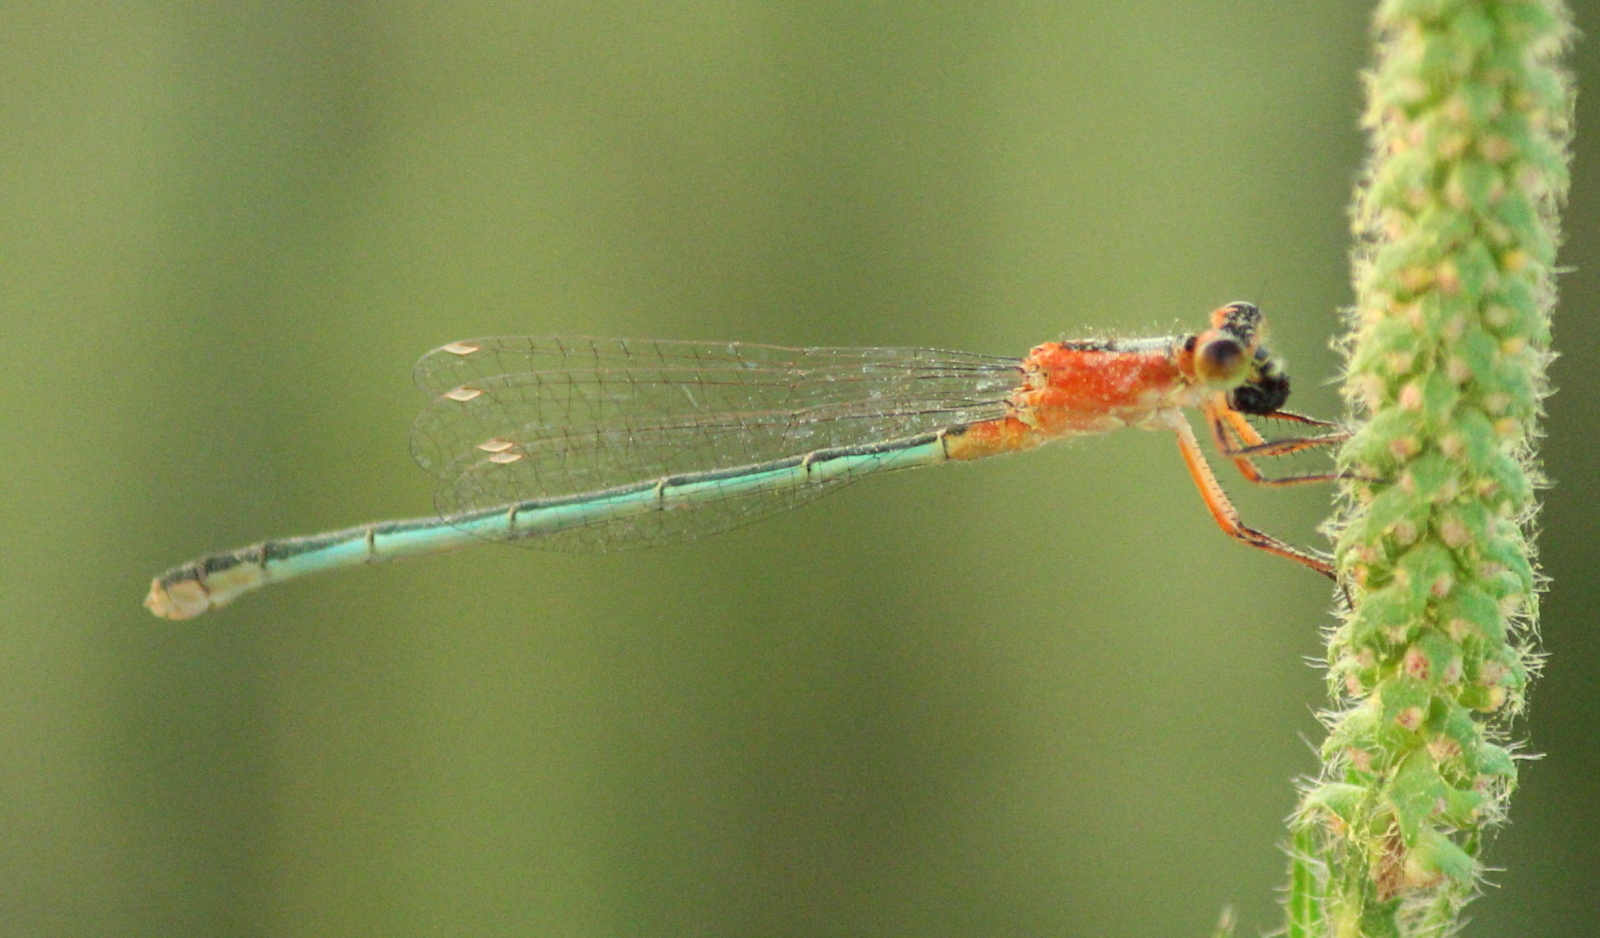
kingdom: Animalia
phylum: Arthropoda
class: Insecta
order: Odonata
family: Coenagrionidae
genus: Ischnura
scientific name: Ischnura ramburii
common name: Rambur's forktail
